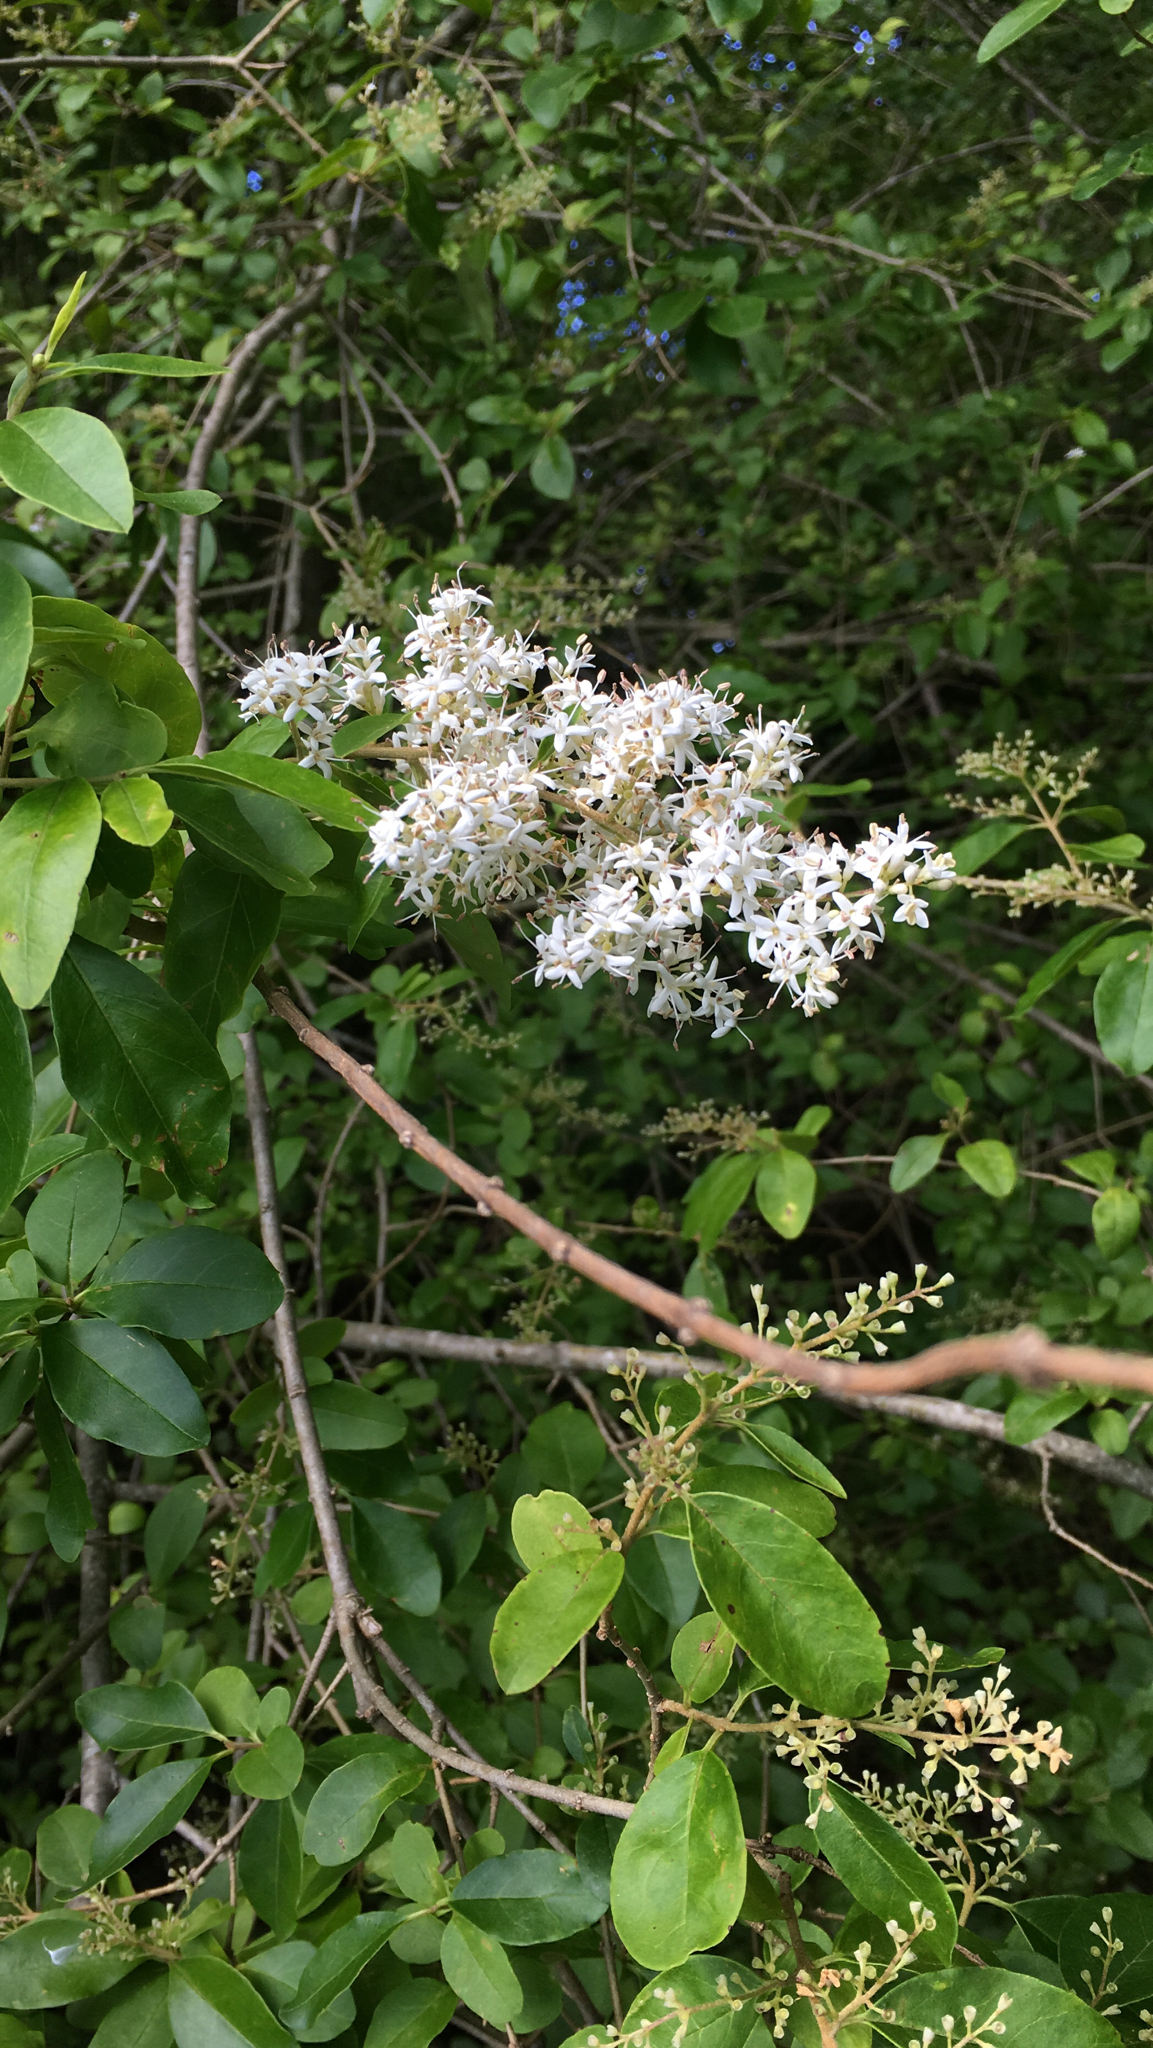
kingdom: Plantae
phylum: Tracheophyta
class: Magnoliopsida
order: Lamiales
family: Oleaceae
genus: Ligustrum
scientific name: Ligustrum sinense
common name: Chinese privet
